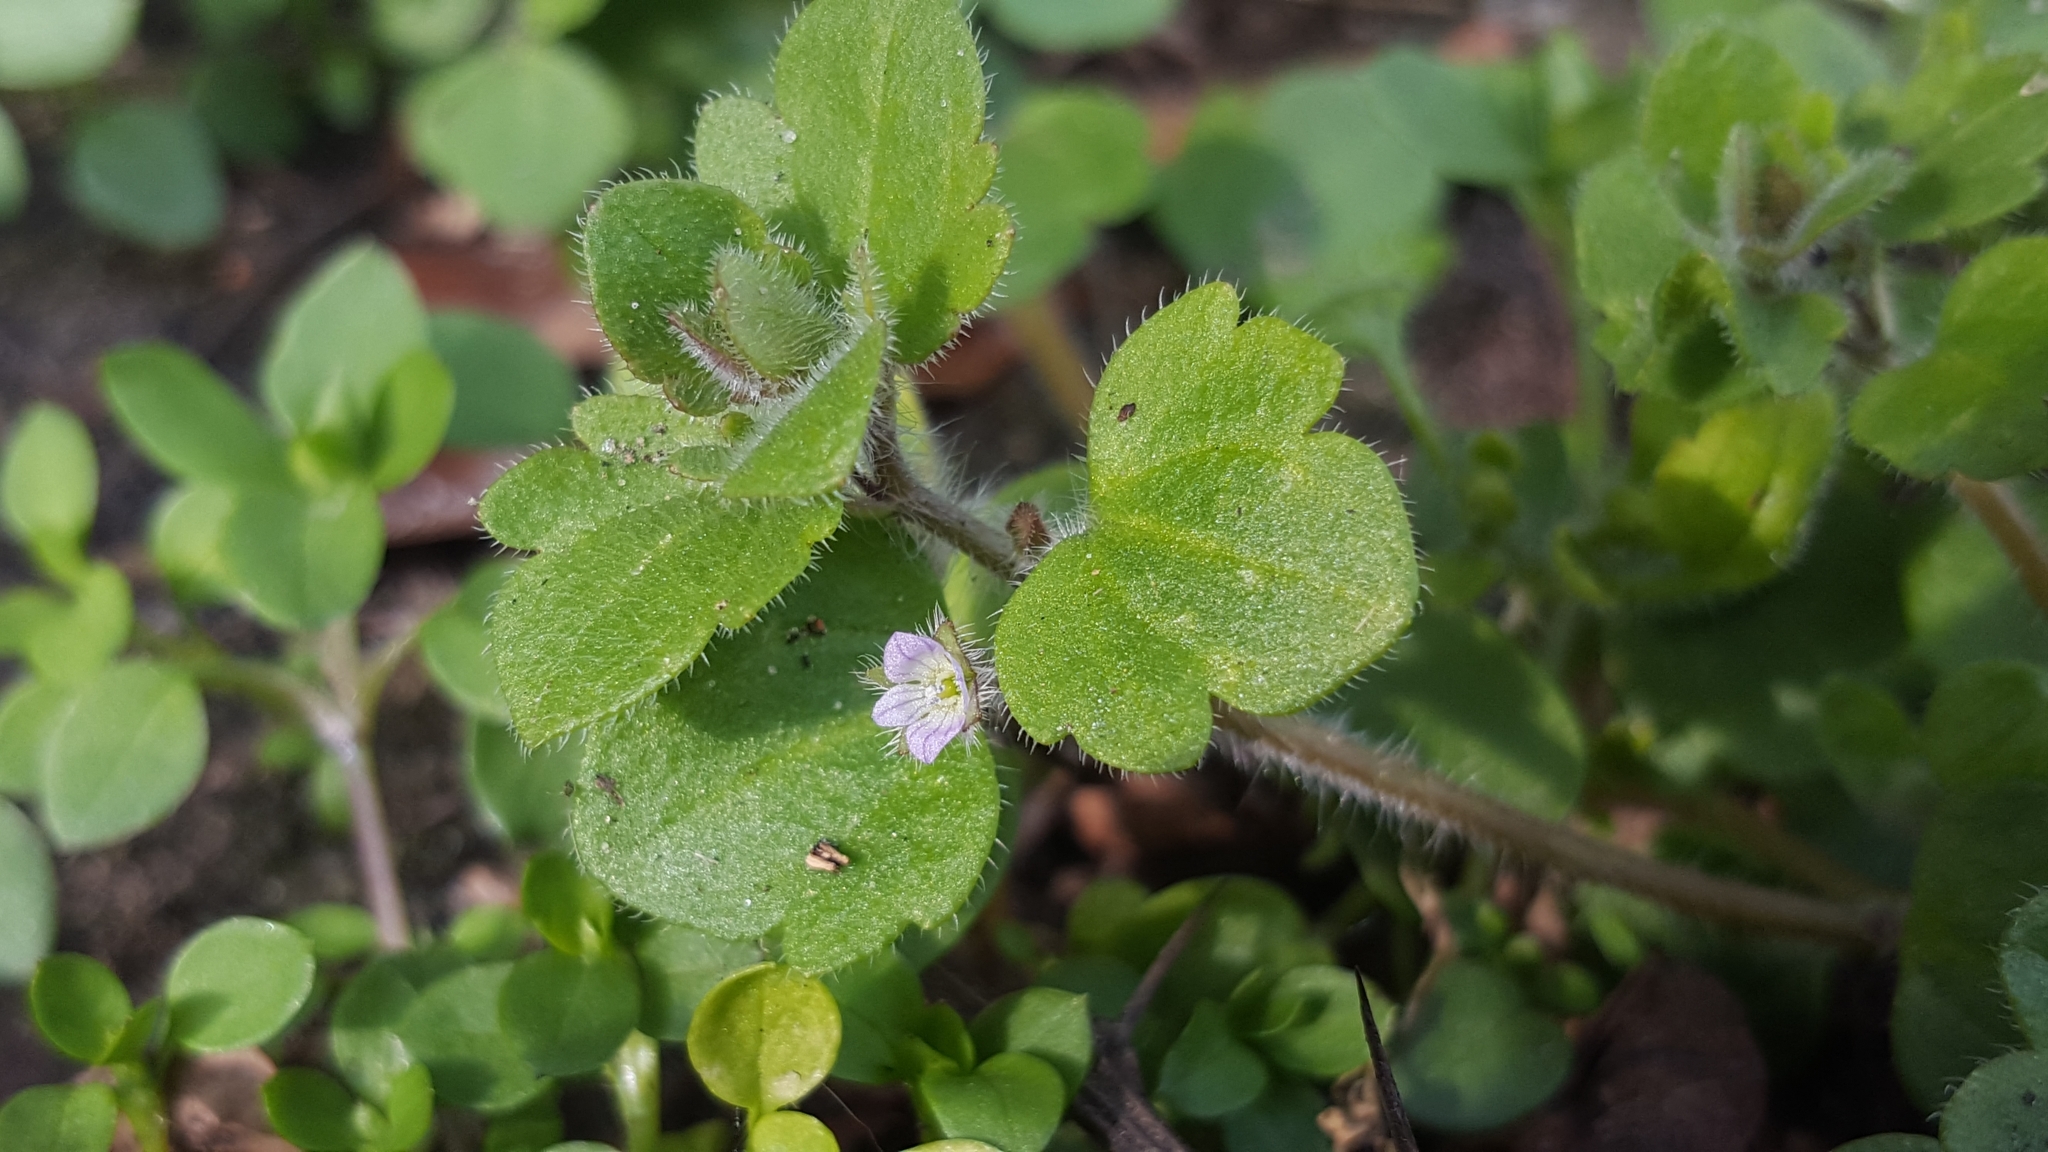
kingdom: Plantae
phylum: Tracheophyta
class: Magnoliopsida
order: Lamiales
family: Plantaginaceae
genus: Veronica
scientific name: Veronica sublobata
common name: False ivy-leaved speedwell
